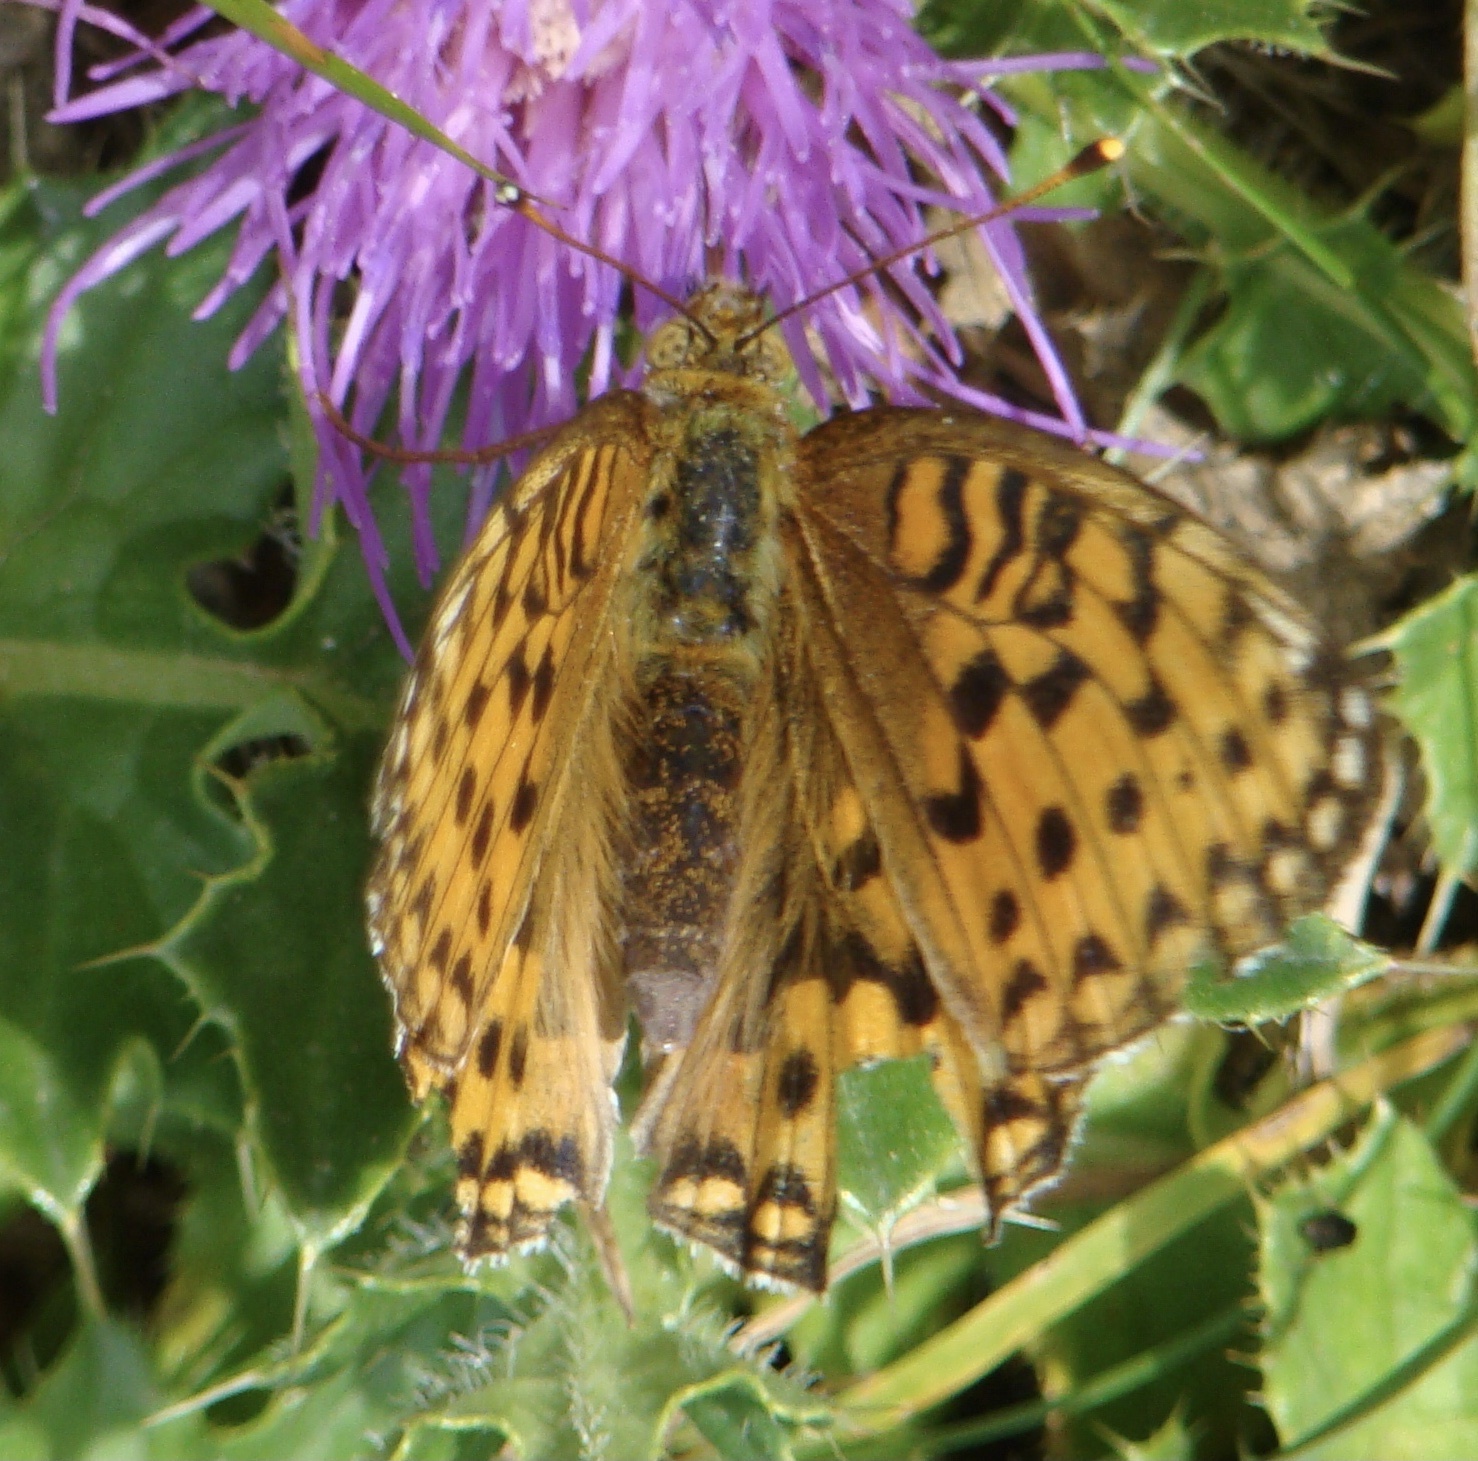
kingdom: Animalia
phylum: Arthropoda
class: Insecta
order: Lepidoptera
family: Nymphalidae
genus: Speyeria
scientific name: Speyeria aglaja
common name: Dark green fritillary
